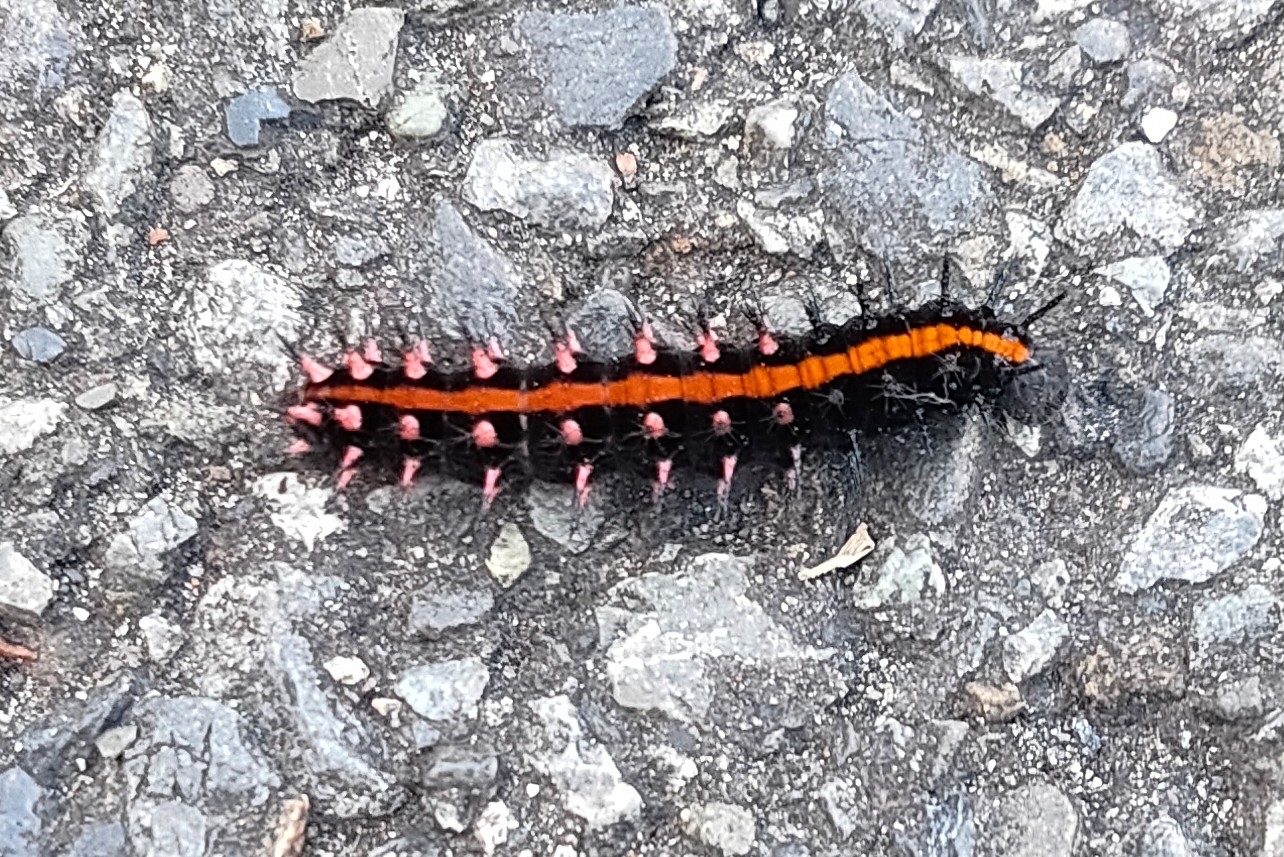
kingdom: Animalia
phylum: Arthropoda
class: Insecta
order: Lepidoptera
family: Nymphalidae
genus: Argynnis
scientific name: Argynnis hyperbius
